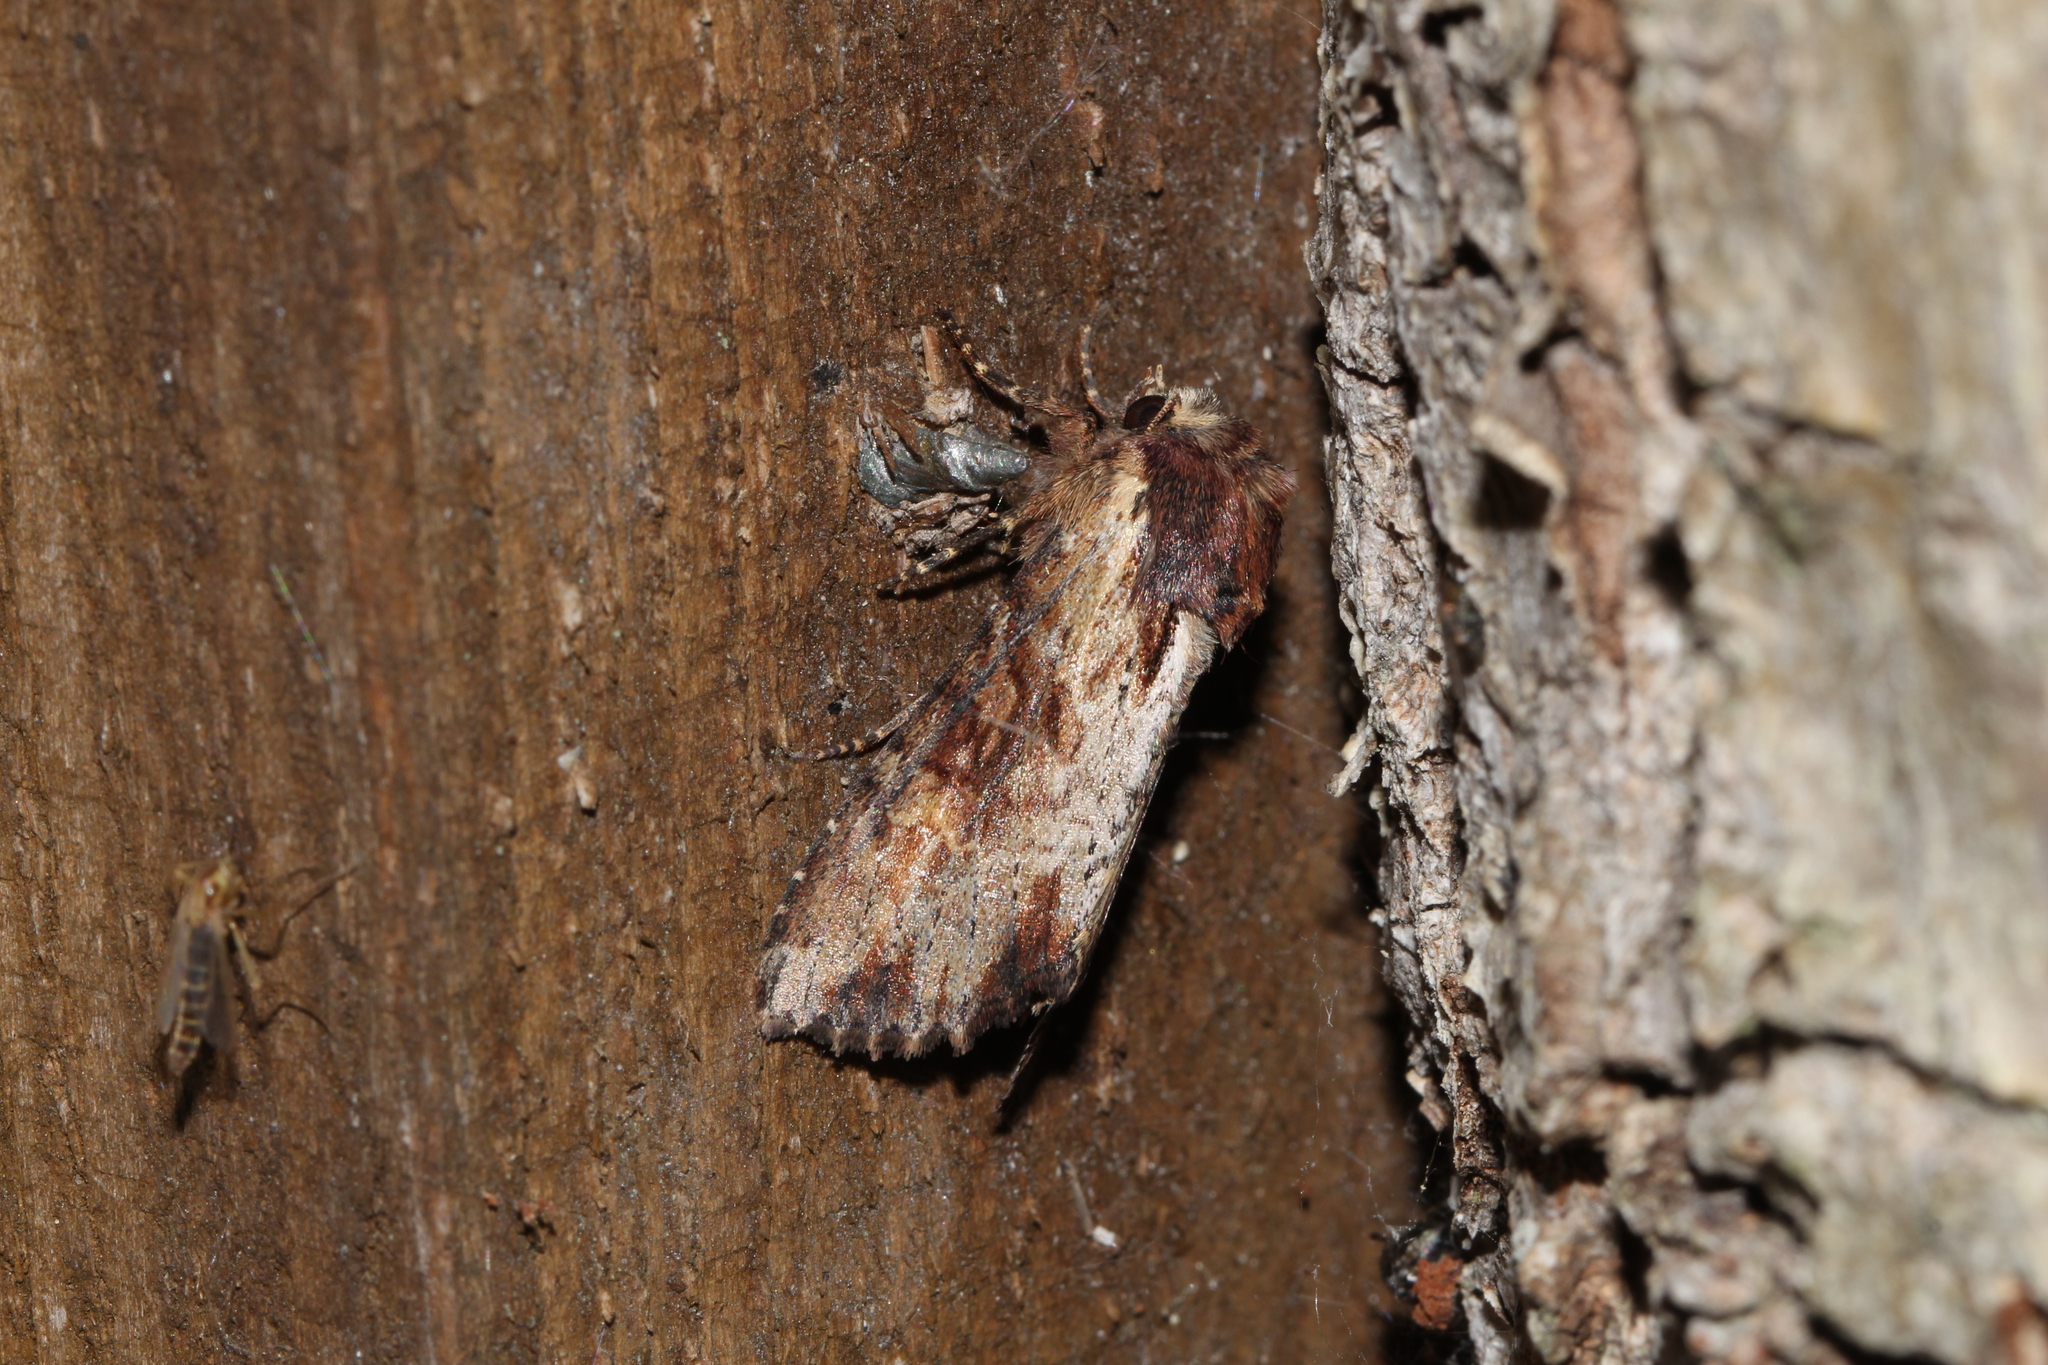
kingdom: Animalia
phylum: Arthropoda
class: Insecta
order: Lepidoptera
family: Noctuidae
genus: Apamea
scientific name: Apamea crenata
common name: Clouded-bordered brindle
